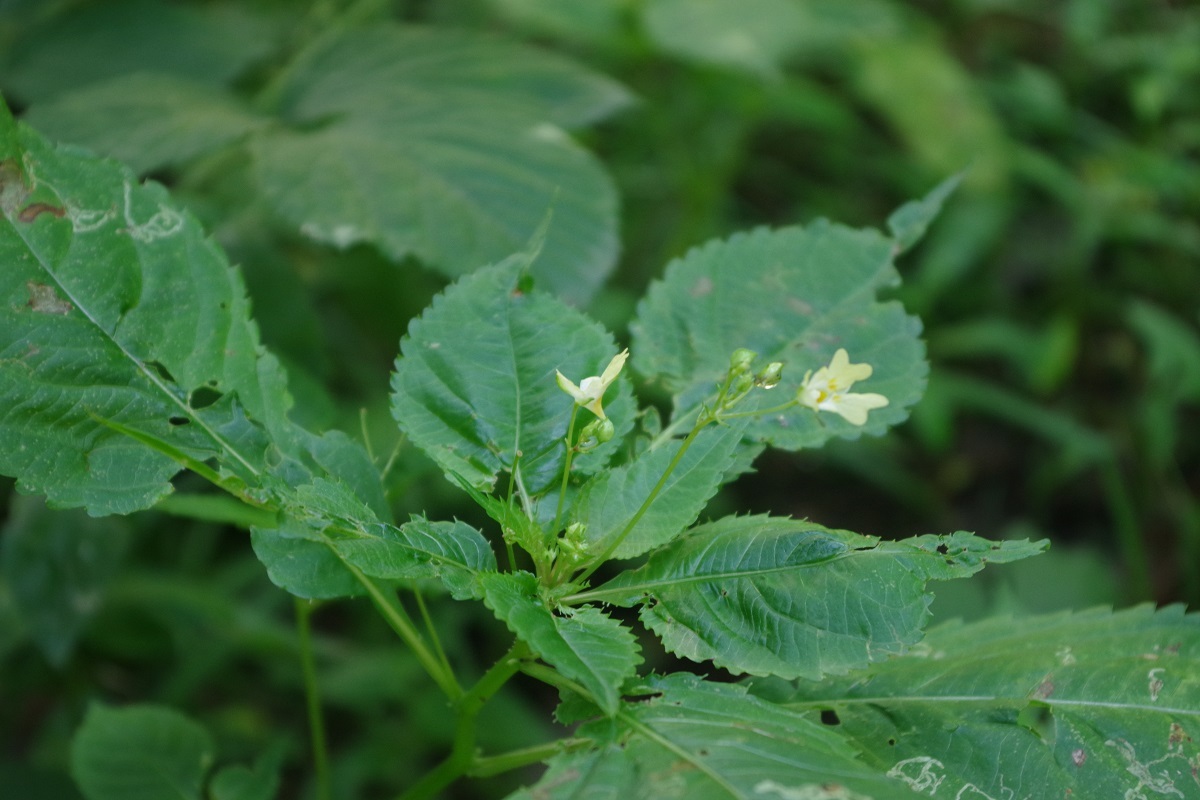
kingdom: Plantae
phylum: Tracheophyta
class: Magnoliopsida
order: Ericales
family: Balsaminaceae
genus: Impatiens
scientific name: Impatiens parviflora
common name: Small balsam
